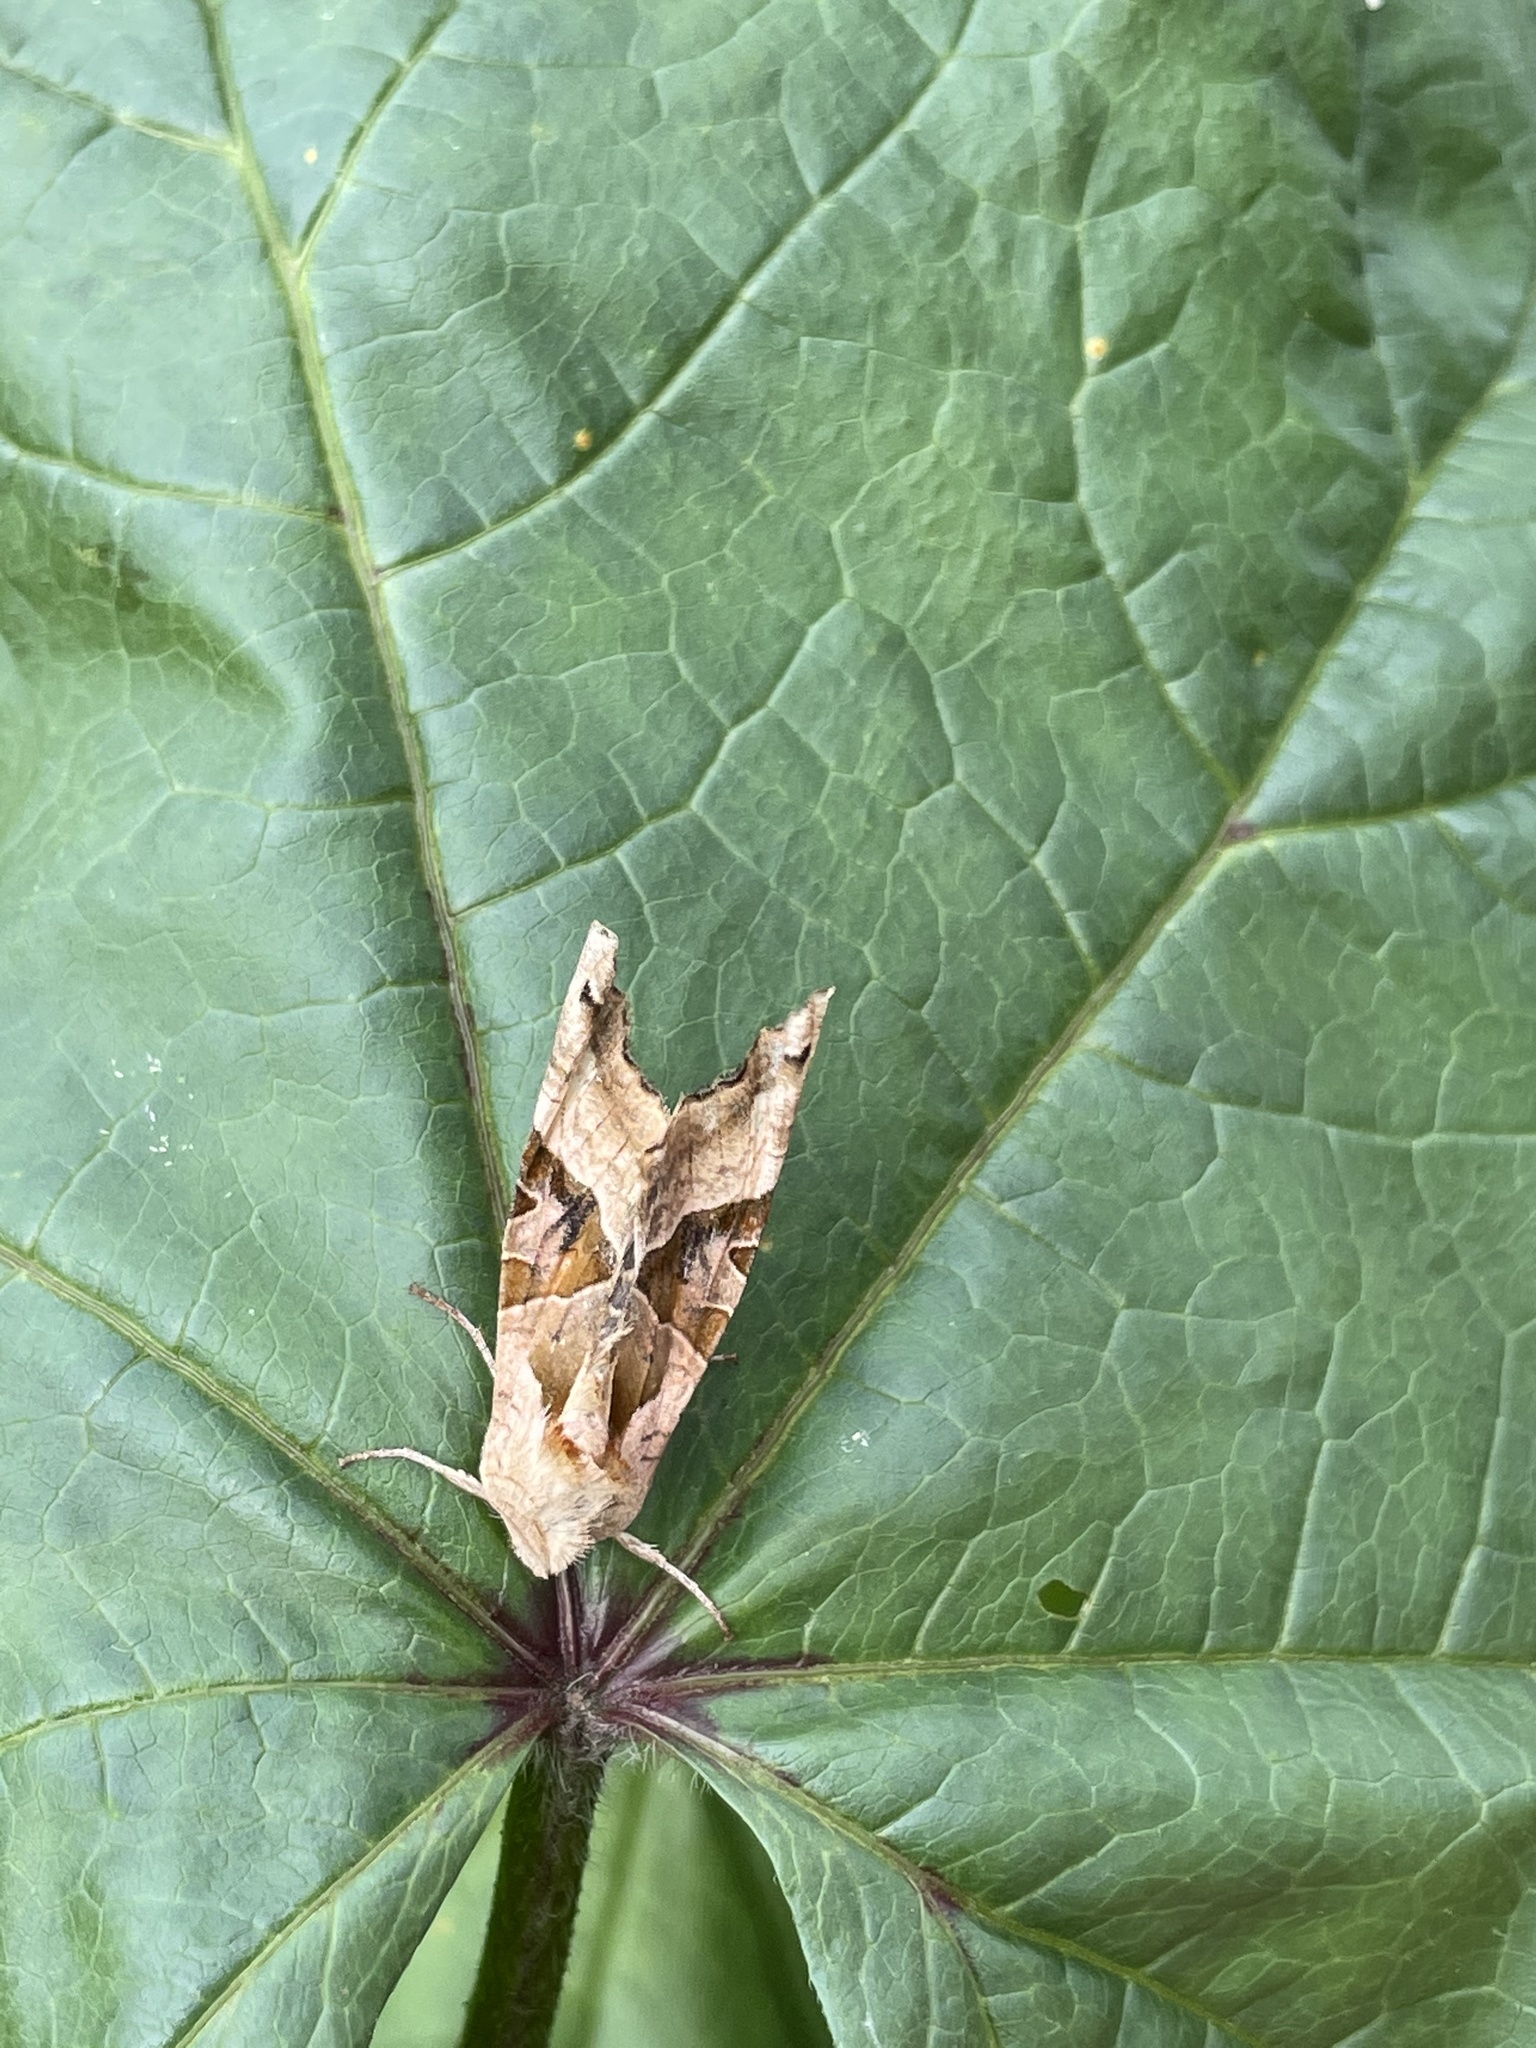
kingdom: Animalia
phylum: Arthropoda
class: Insecta
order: Lepidoptera
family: Noctuidae
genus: Phlogophora
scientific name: Phlogophora meticulosa
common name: Angle shades
